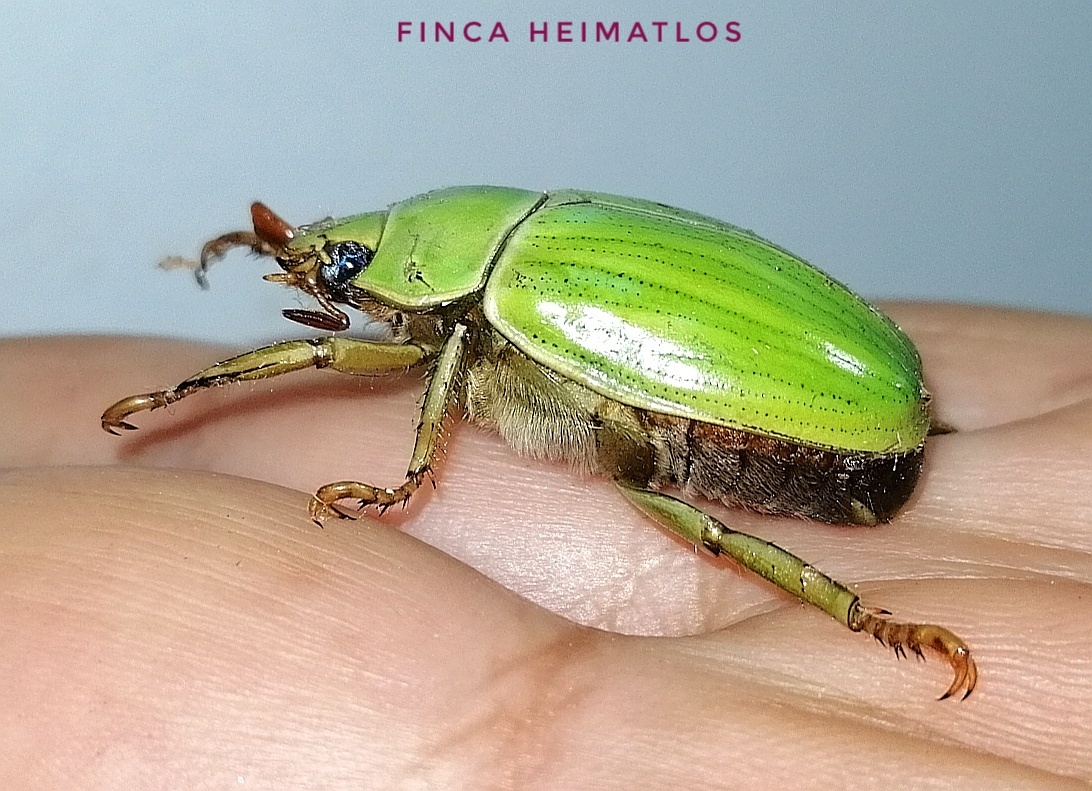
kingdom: Animalia
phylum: Arthropoda
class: Insecta
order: Coleoptera
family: Scarabaeidae
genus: Pelidnota
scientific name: Pelidnota prasina
